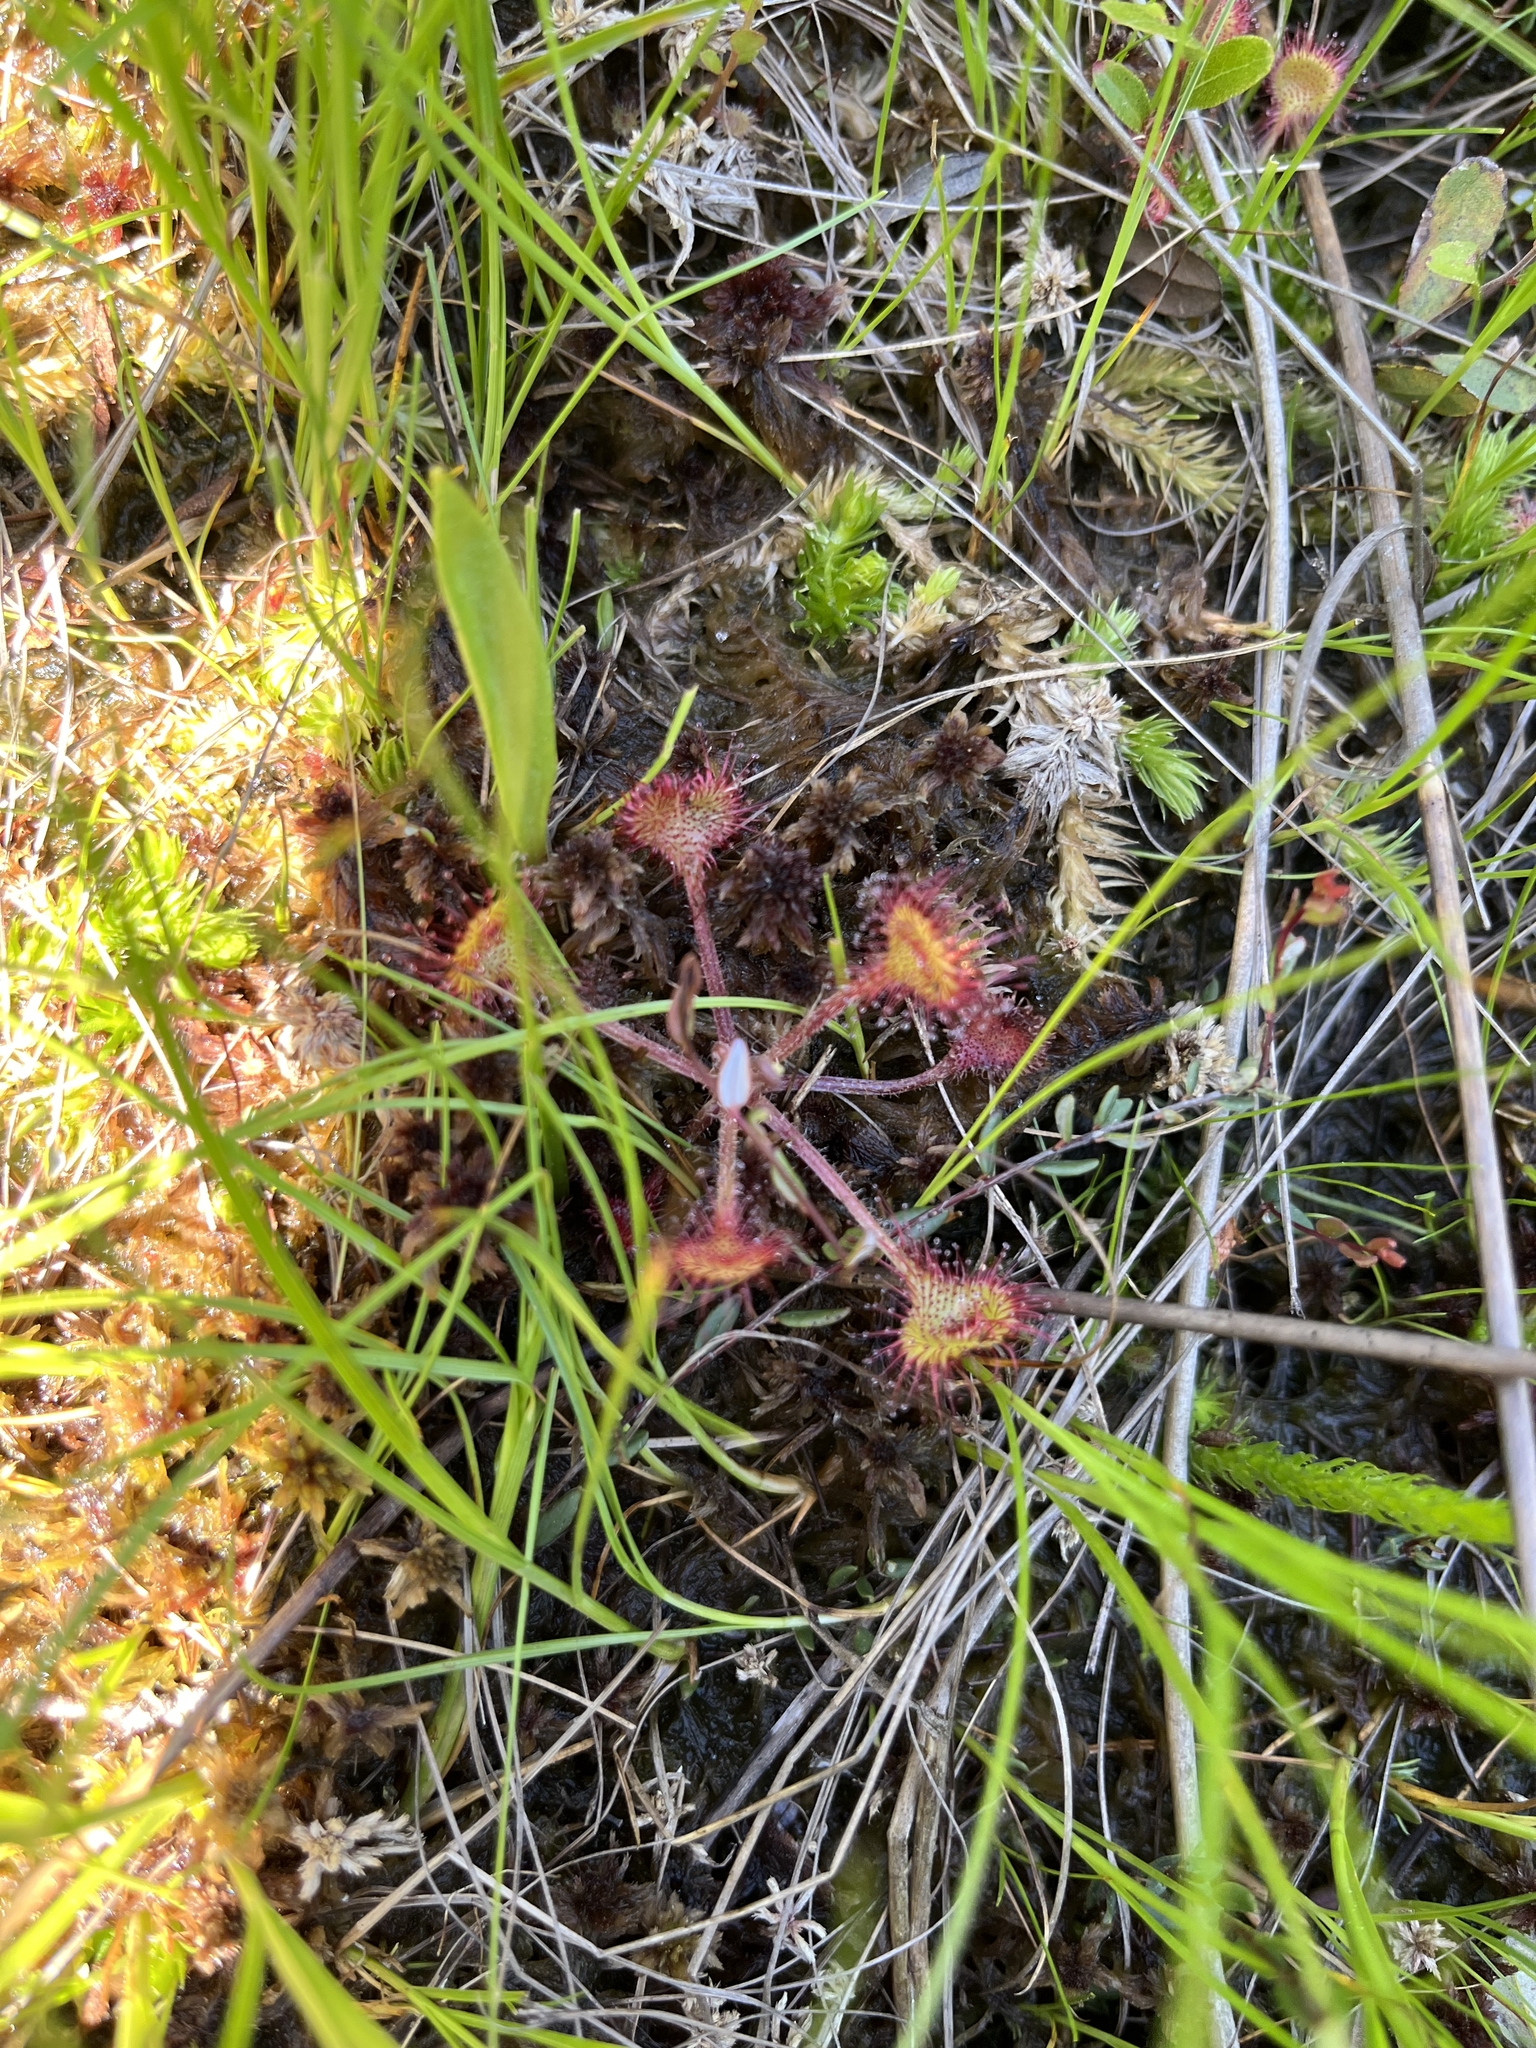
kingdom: Plantae
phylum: Tracheophyta
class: Magnoliopsida
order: Caryophyllales
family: Droseraceae
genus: Drosera
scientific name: Drosera rotundifolia
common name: Round-leaved sundew
